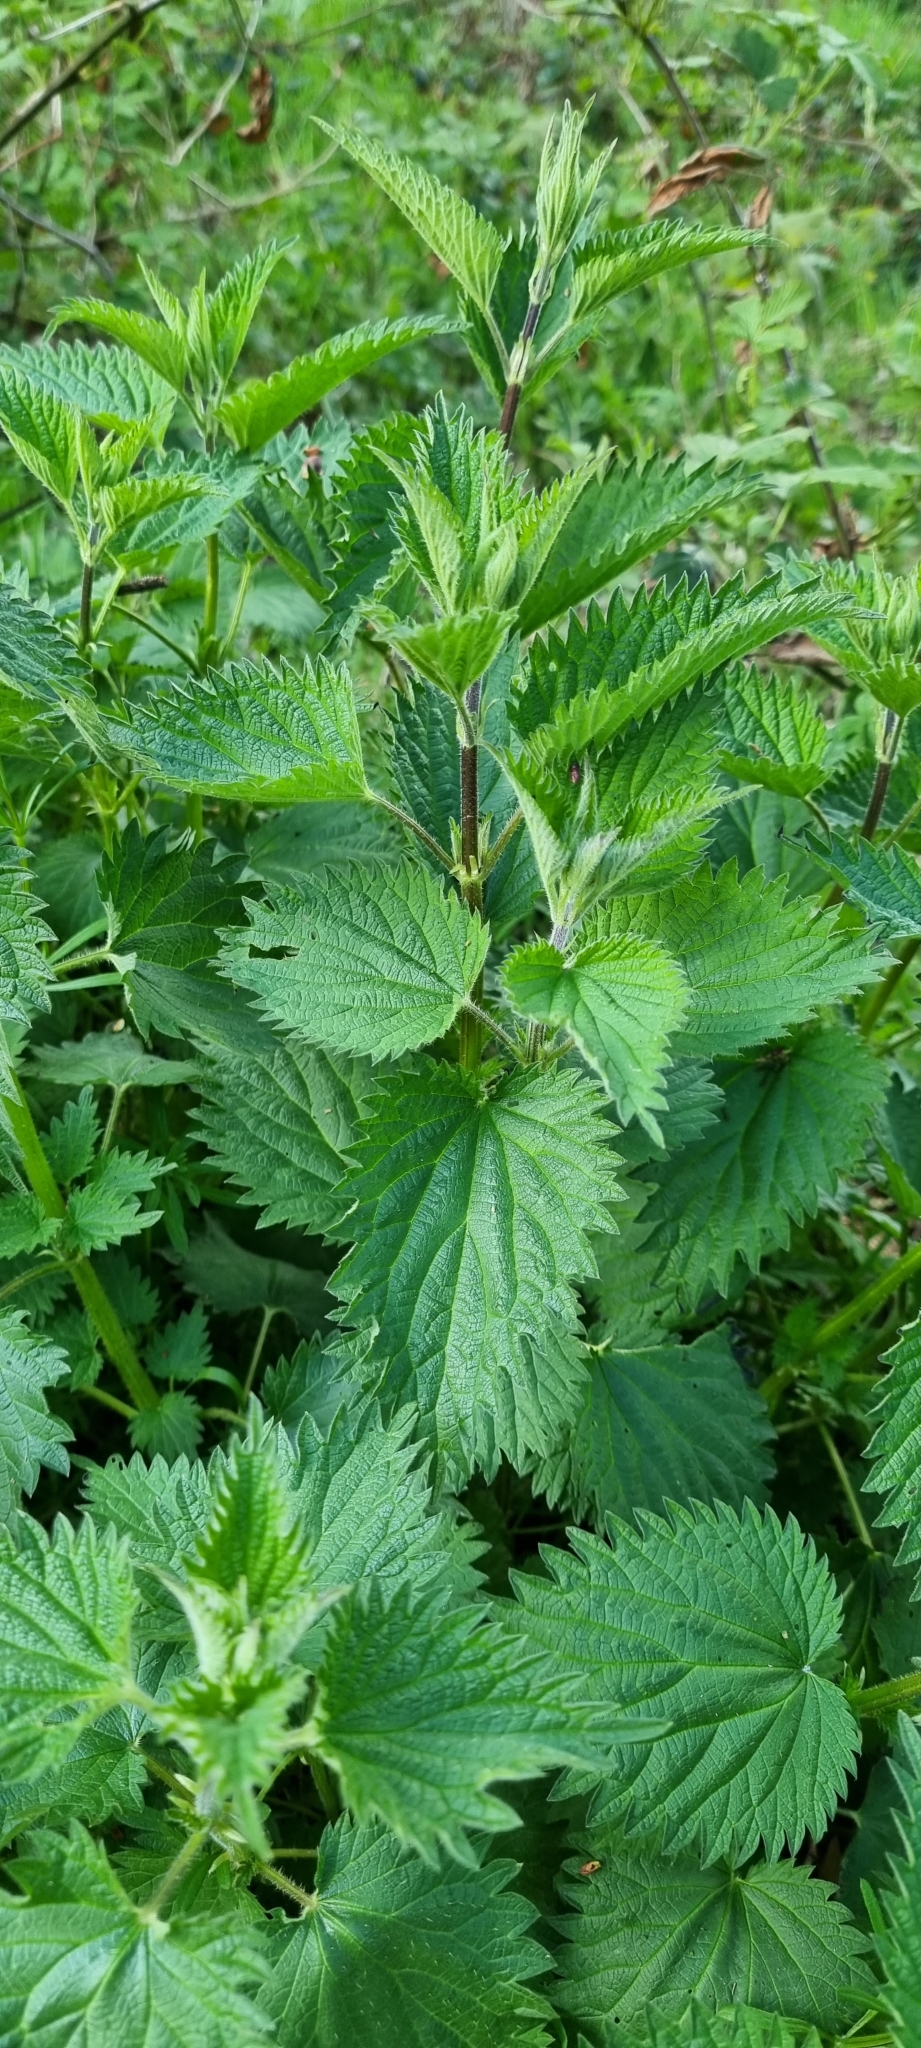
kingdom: Plantae
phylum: Tracheophyta
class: Magnoliopsida
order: Rosales
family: Urticaceae
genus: Urtica
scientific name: Urtica dioica
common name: Common nettle
